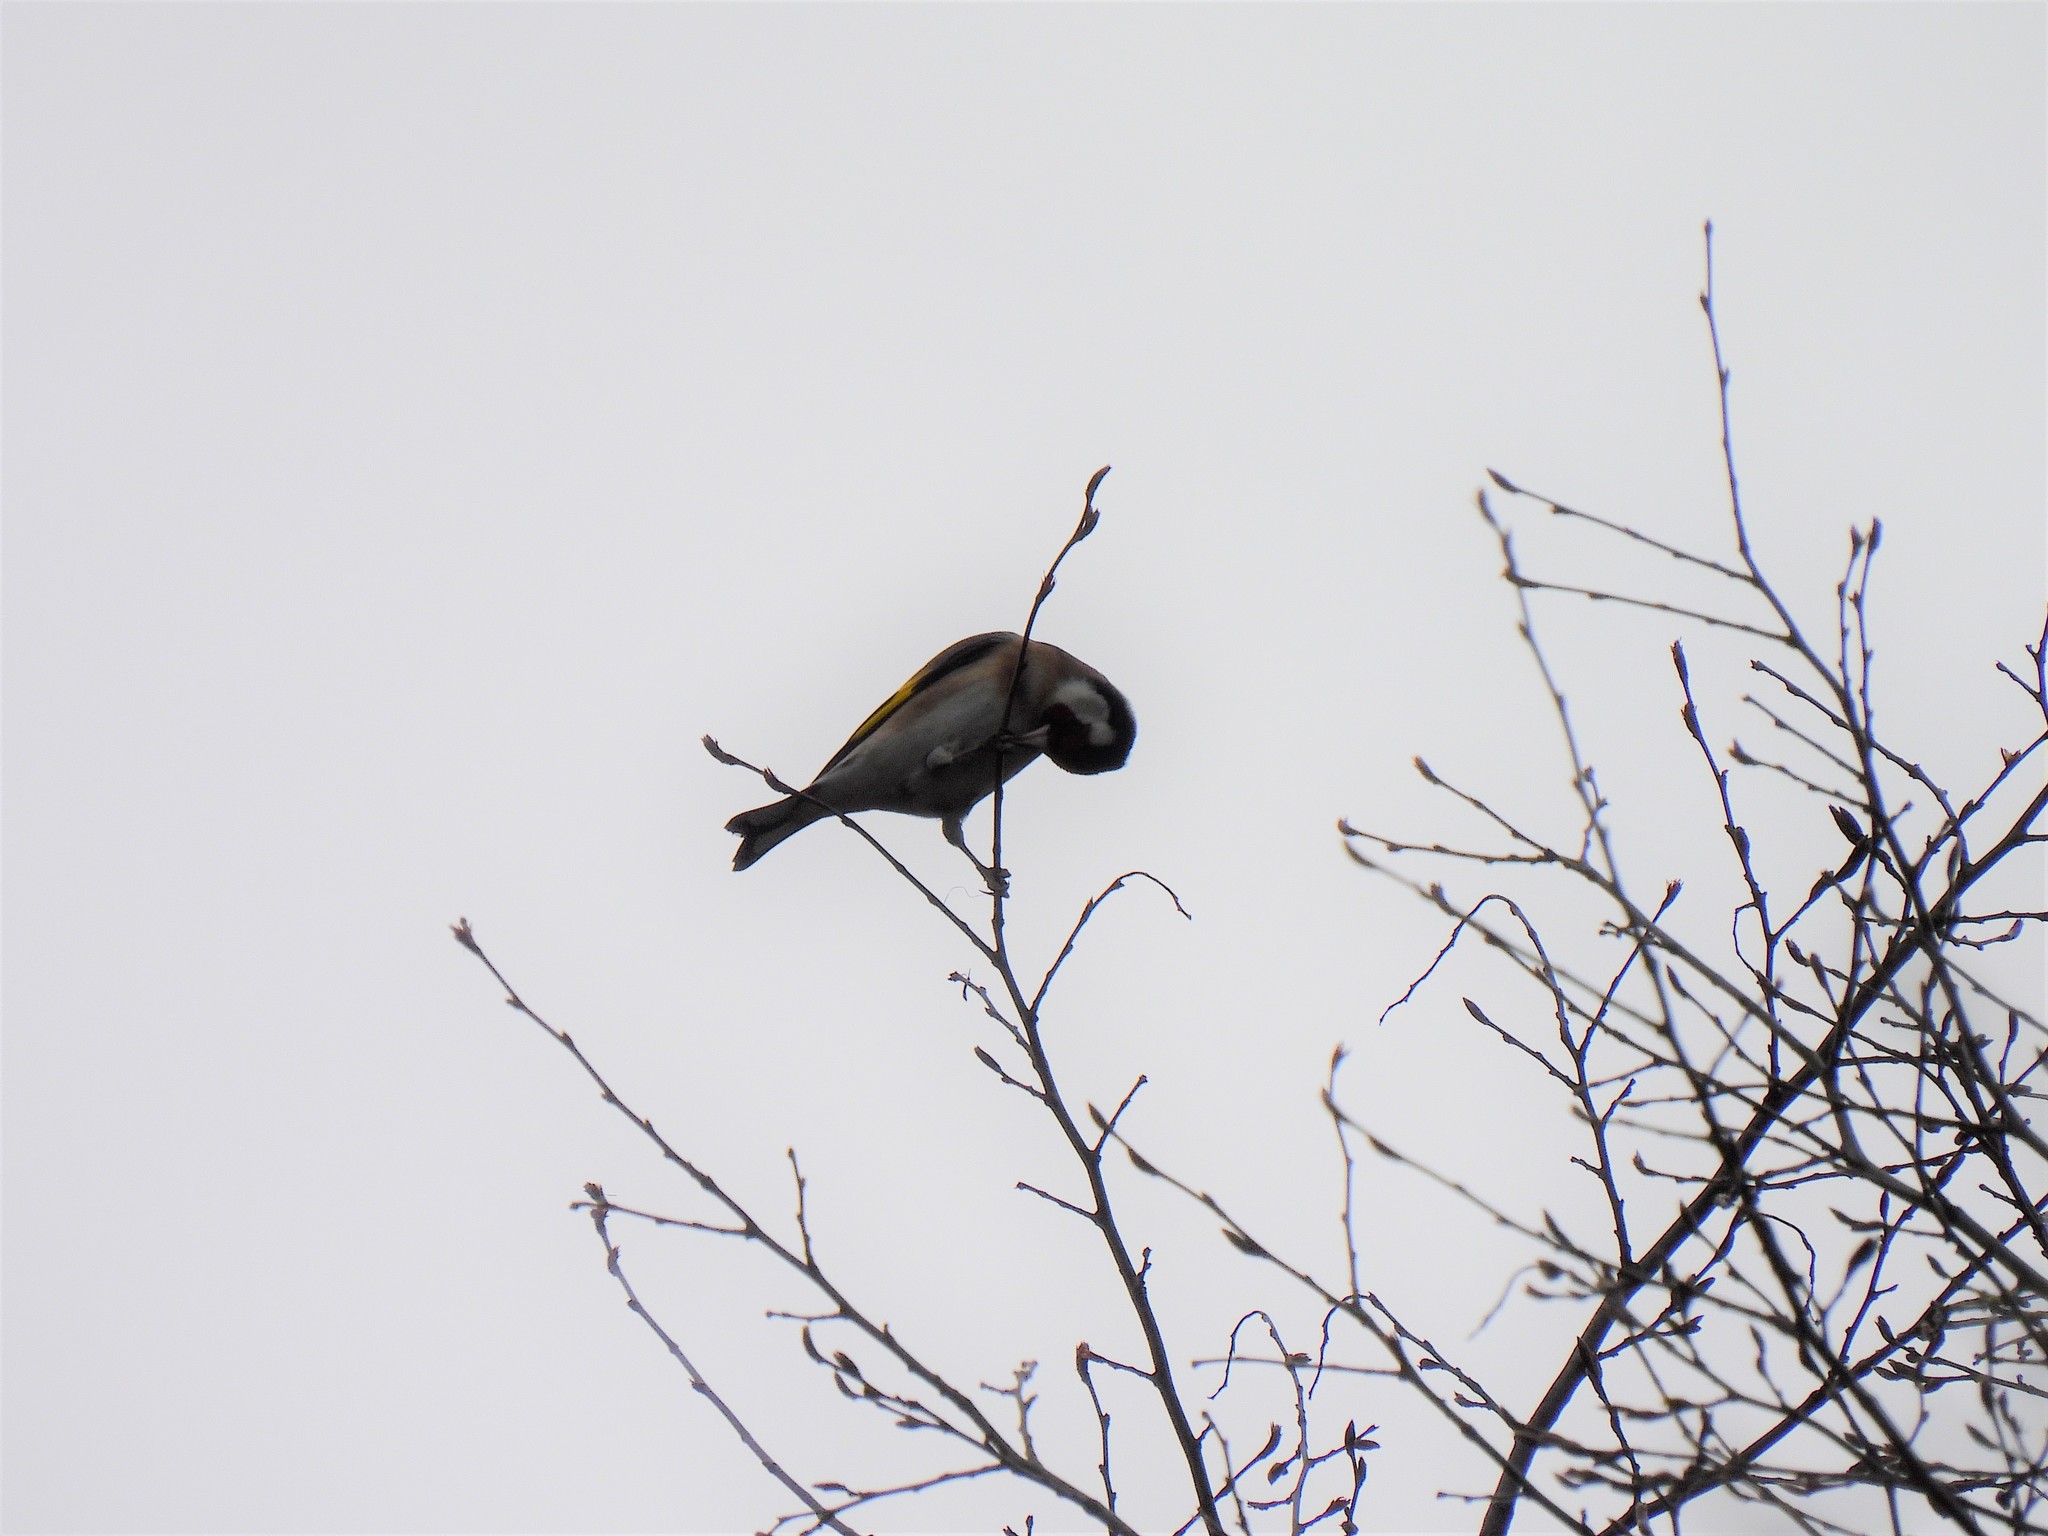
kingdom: Animalia
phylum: Chordata
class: Aves
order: Passeriformes
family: Fringillidae
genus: Carduelis
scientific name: Carduelis carduelis
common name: European goldfinch
